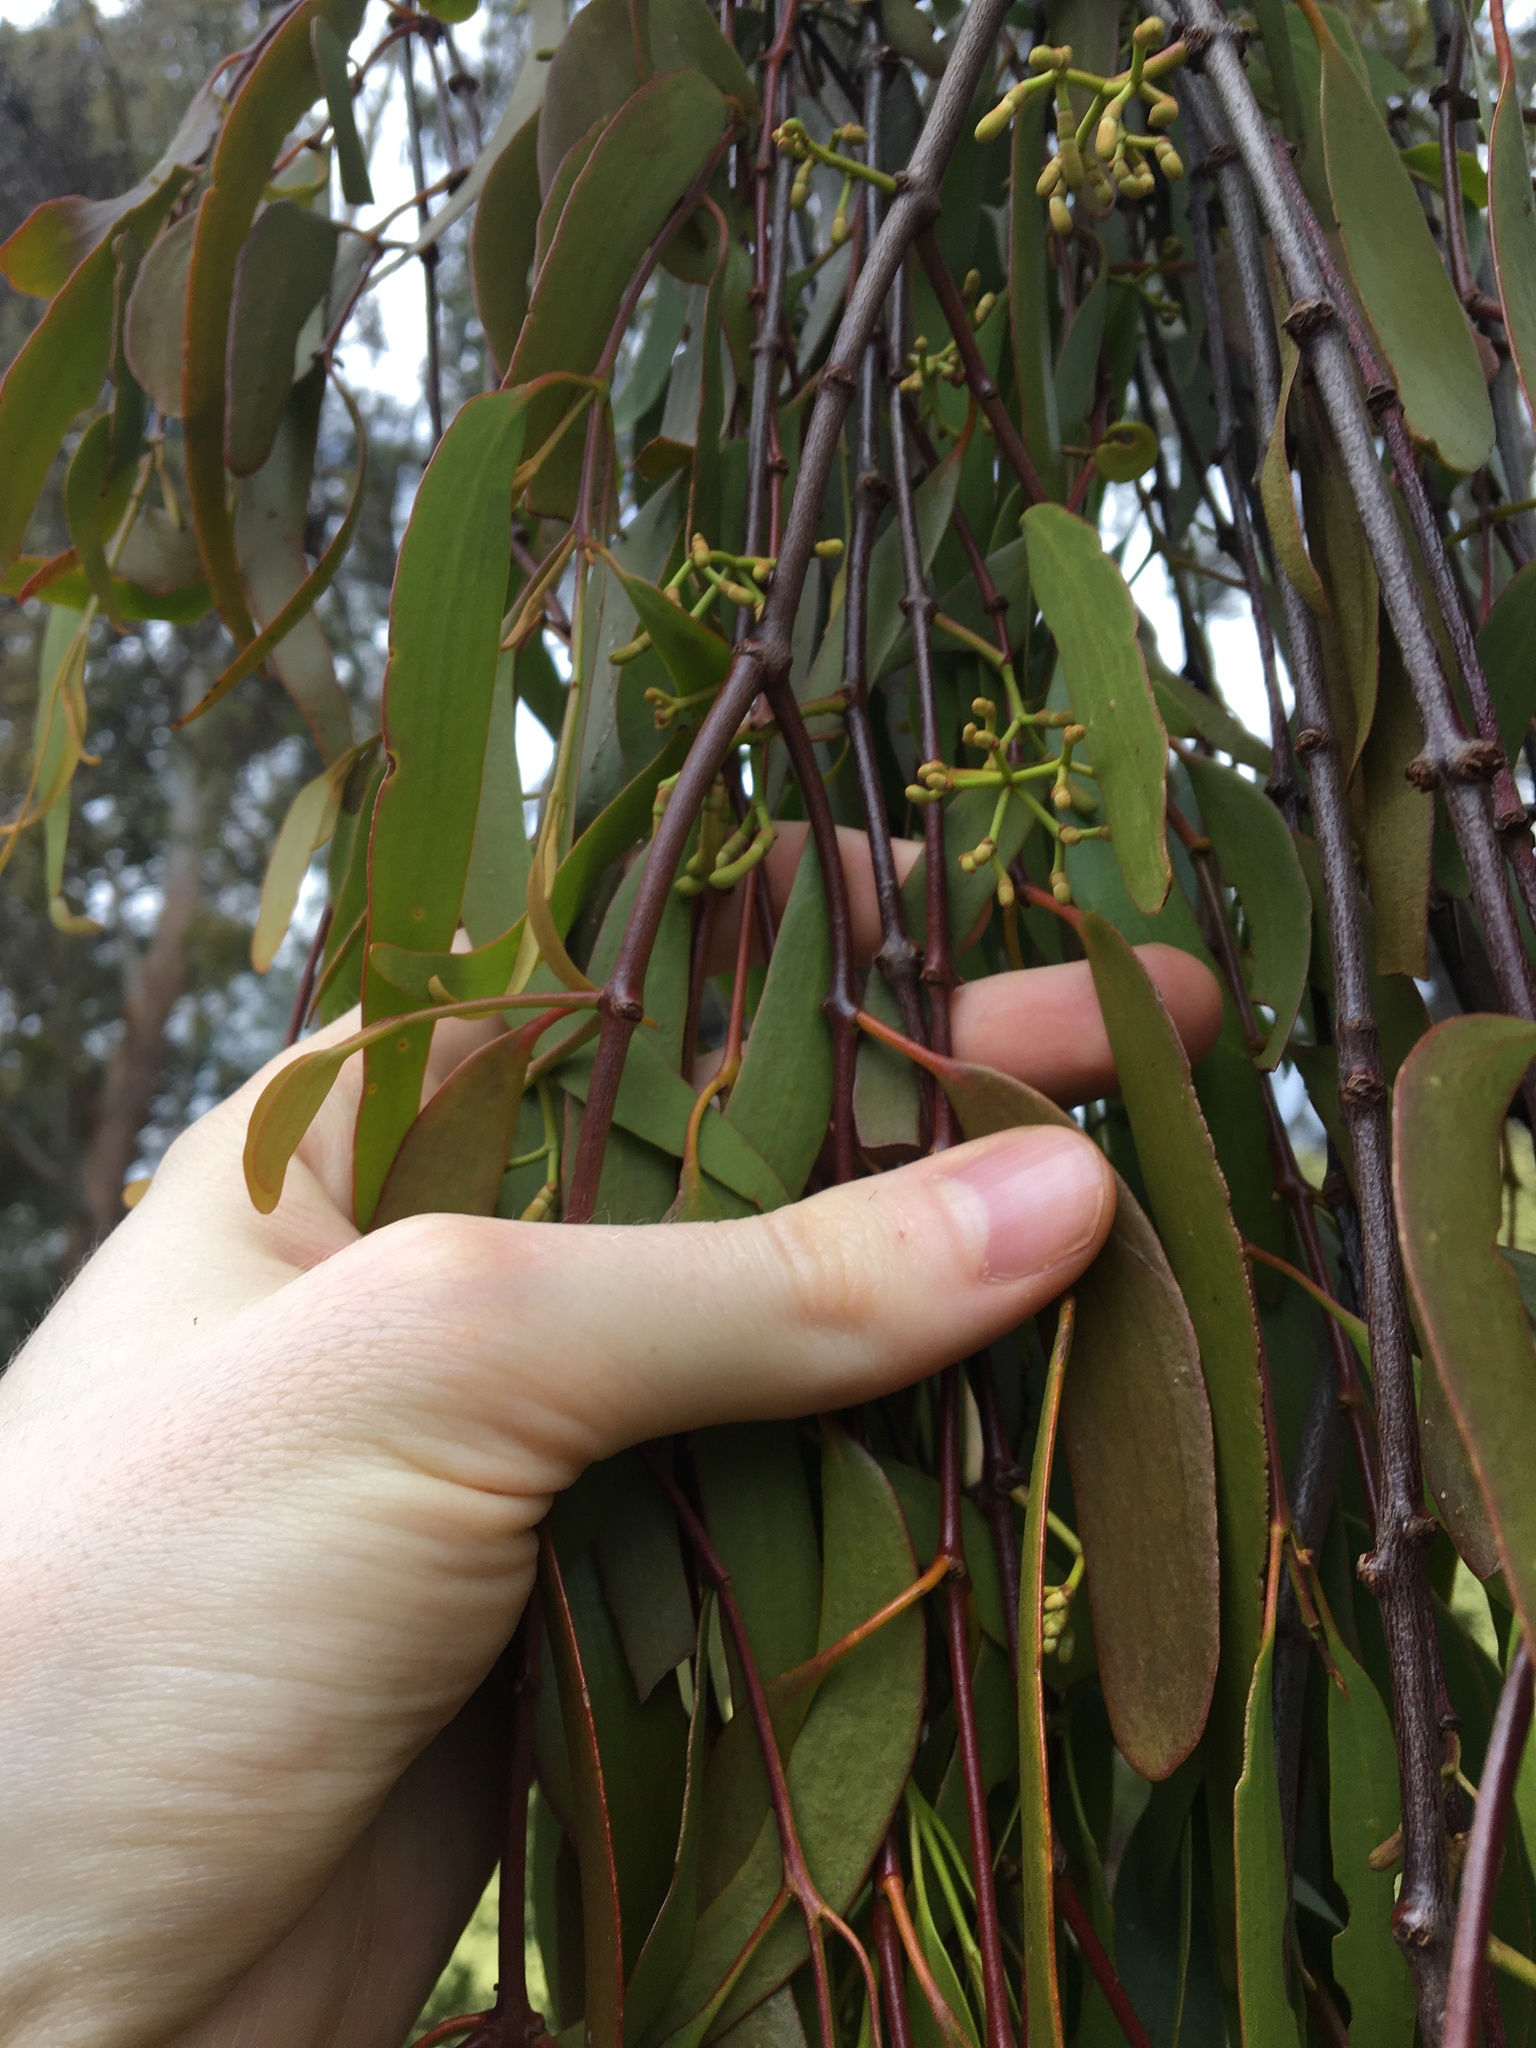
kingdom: Plantae
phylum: Tracheophyta
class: Magnoliopsida
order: Santalales
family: Loranthaceae
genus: Muellerina
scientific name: Muellerina eucalyptoides
